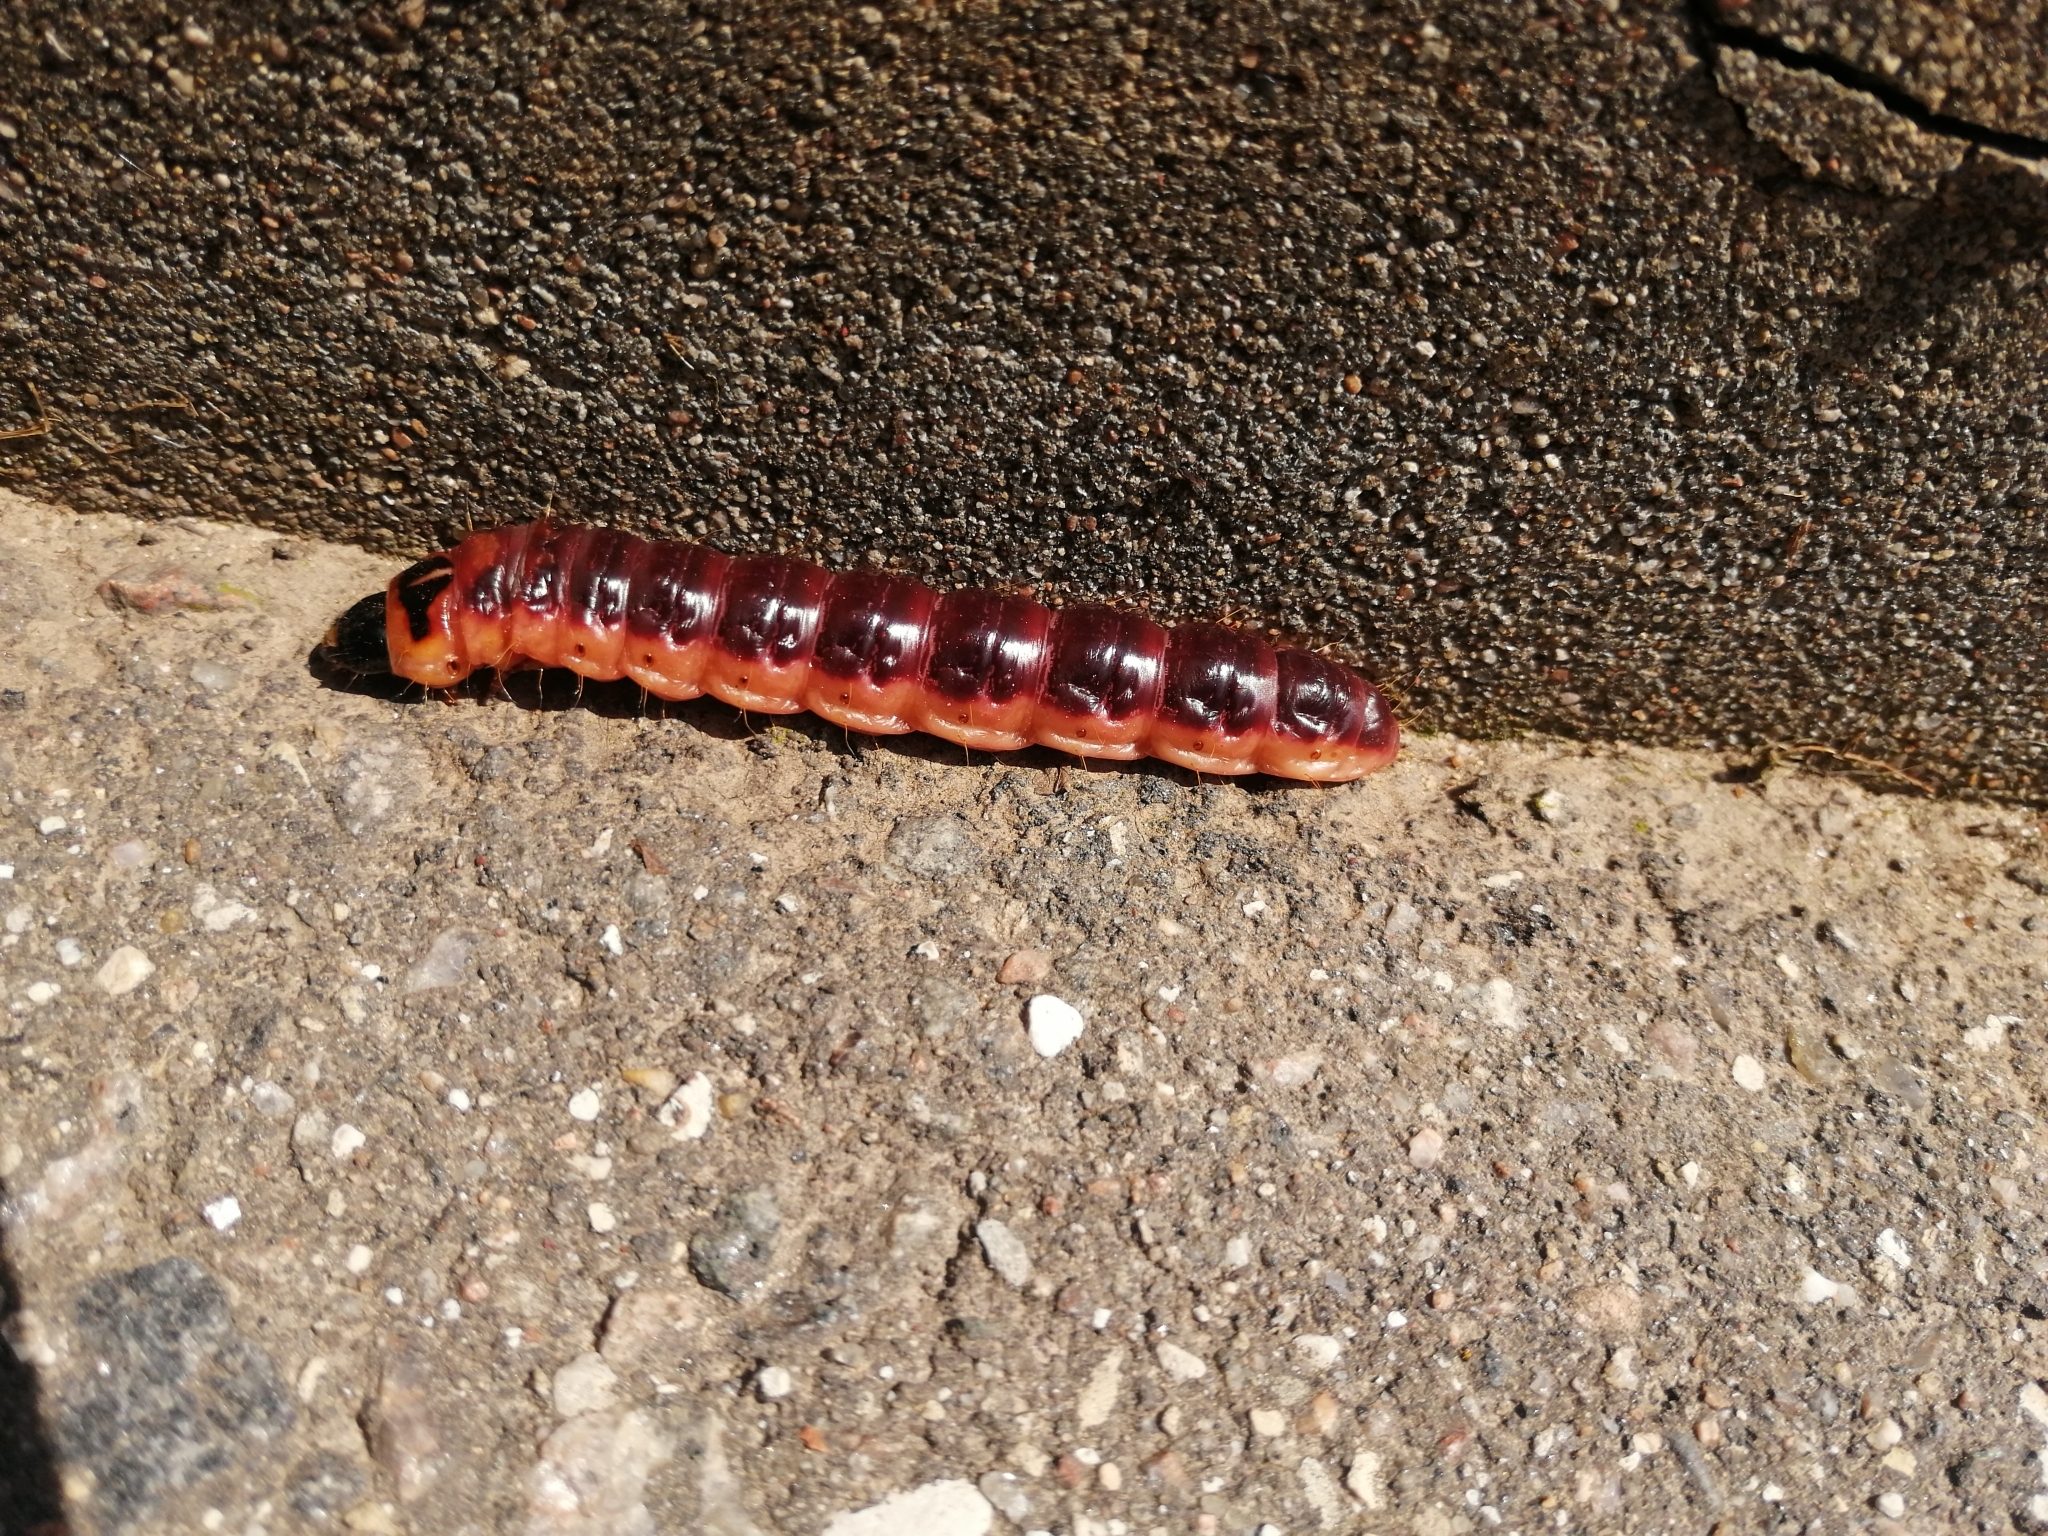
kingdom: Animalia
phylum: Arthropoda
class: Insecta
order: Lepidoptera
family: Cossidae
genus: Cossus
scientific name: Cossus cossus
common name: Goat moth
